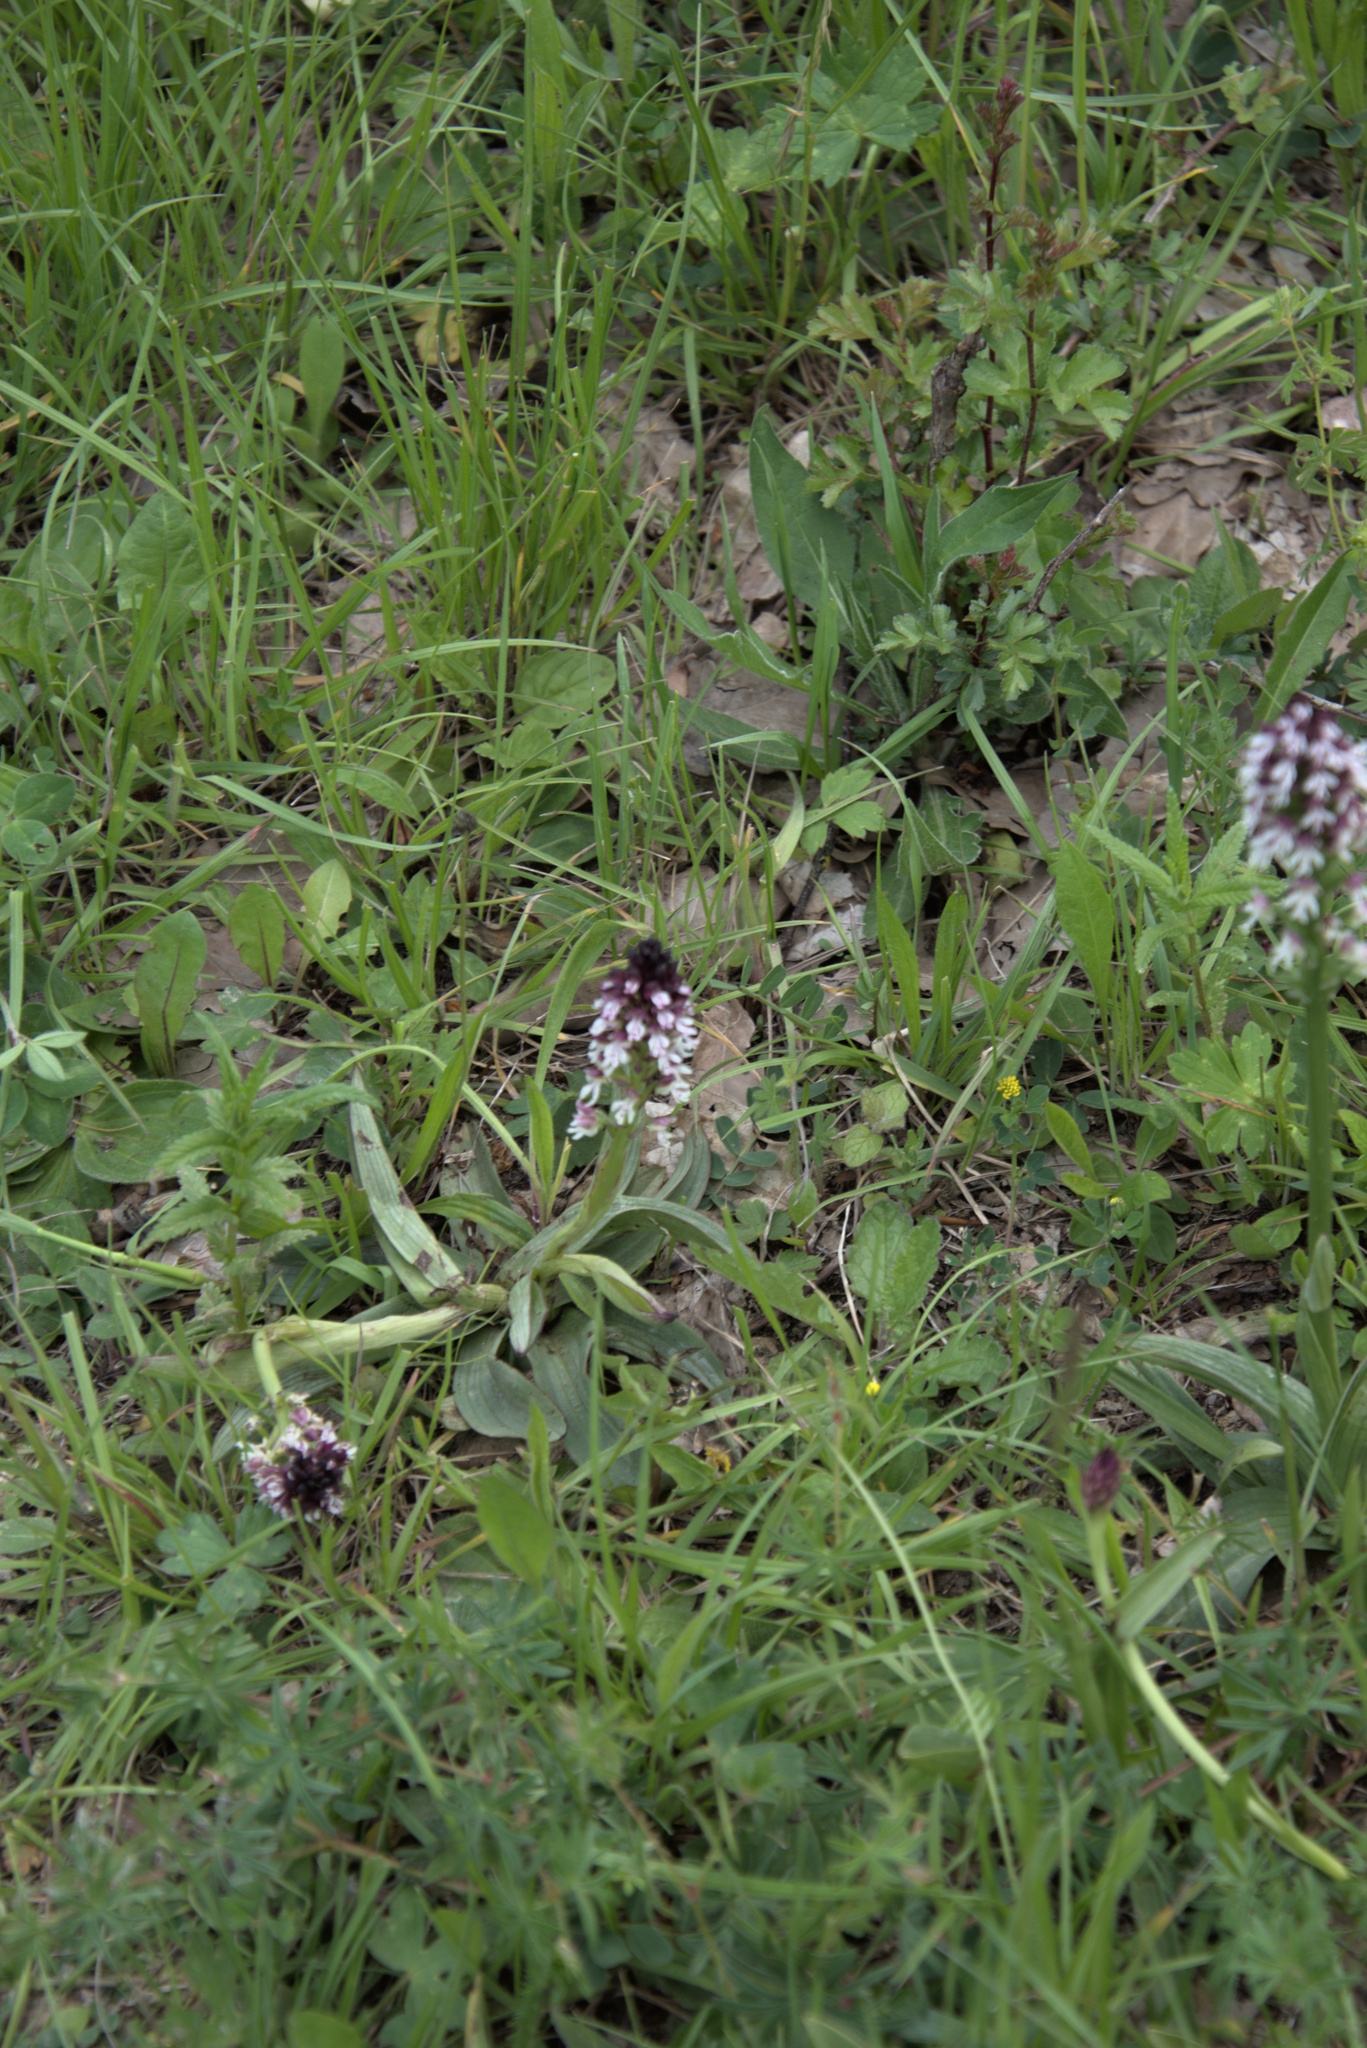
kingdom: Plantae
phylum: Tracheophyta
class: Liliopsida
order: Asparagales
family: Orchidaceae
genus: Neotinea
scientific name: Neotinea ustulata
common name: Burnt orchid
